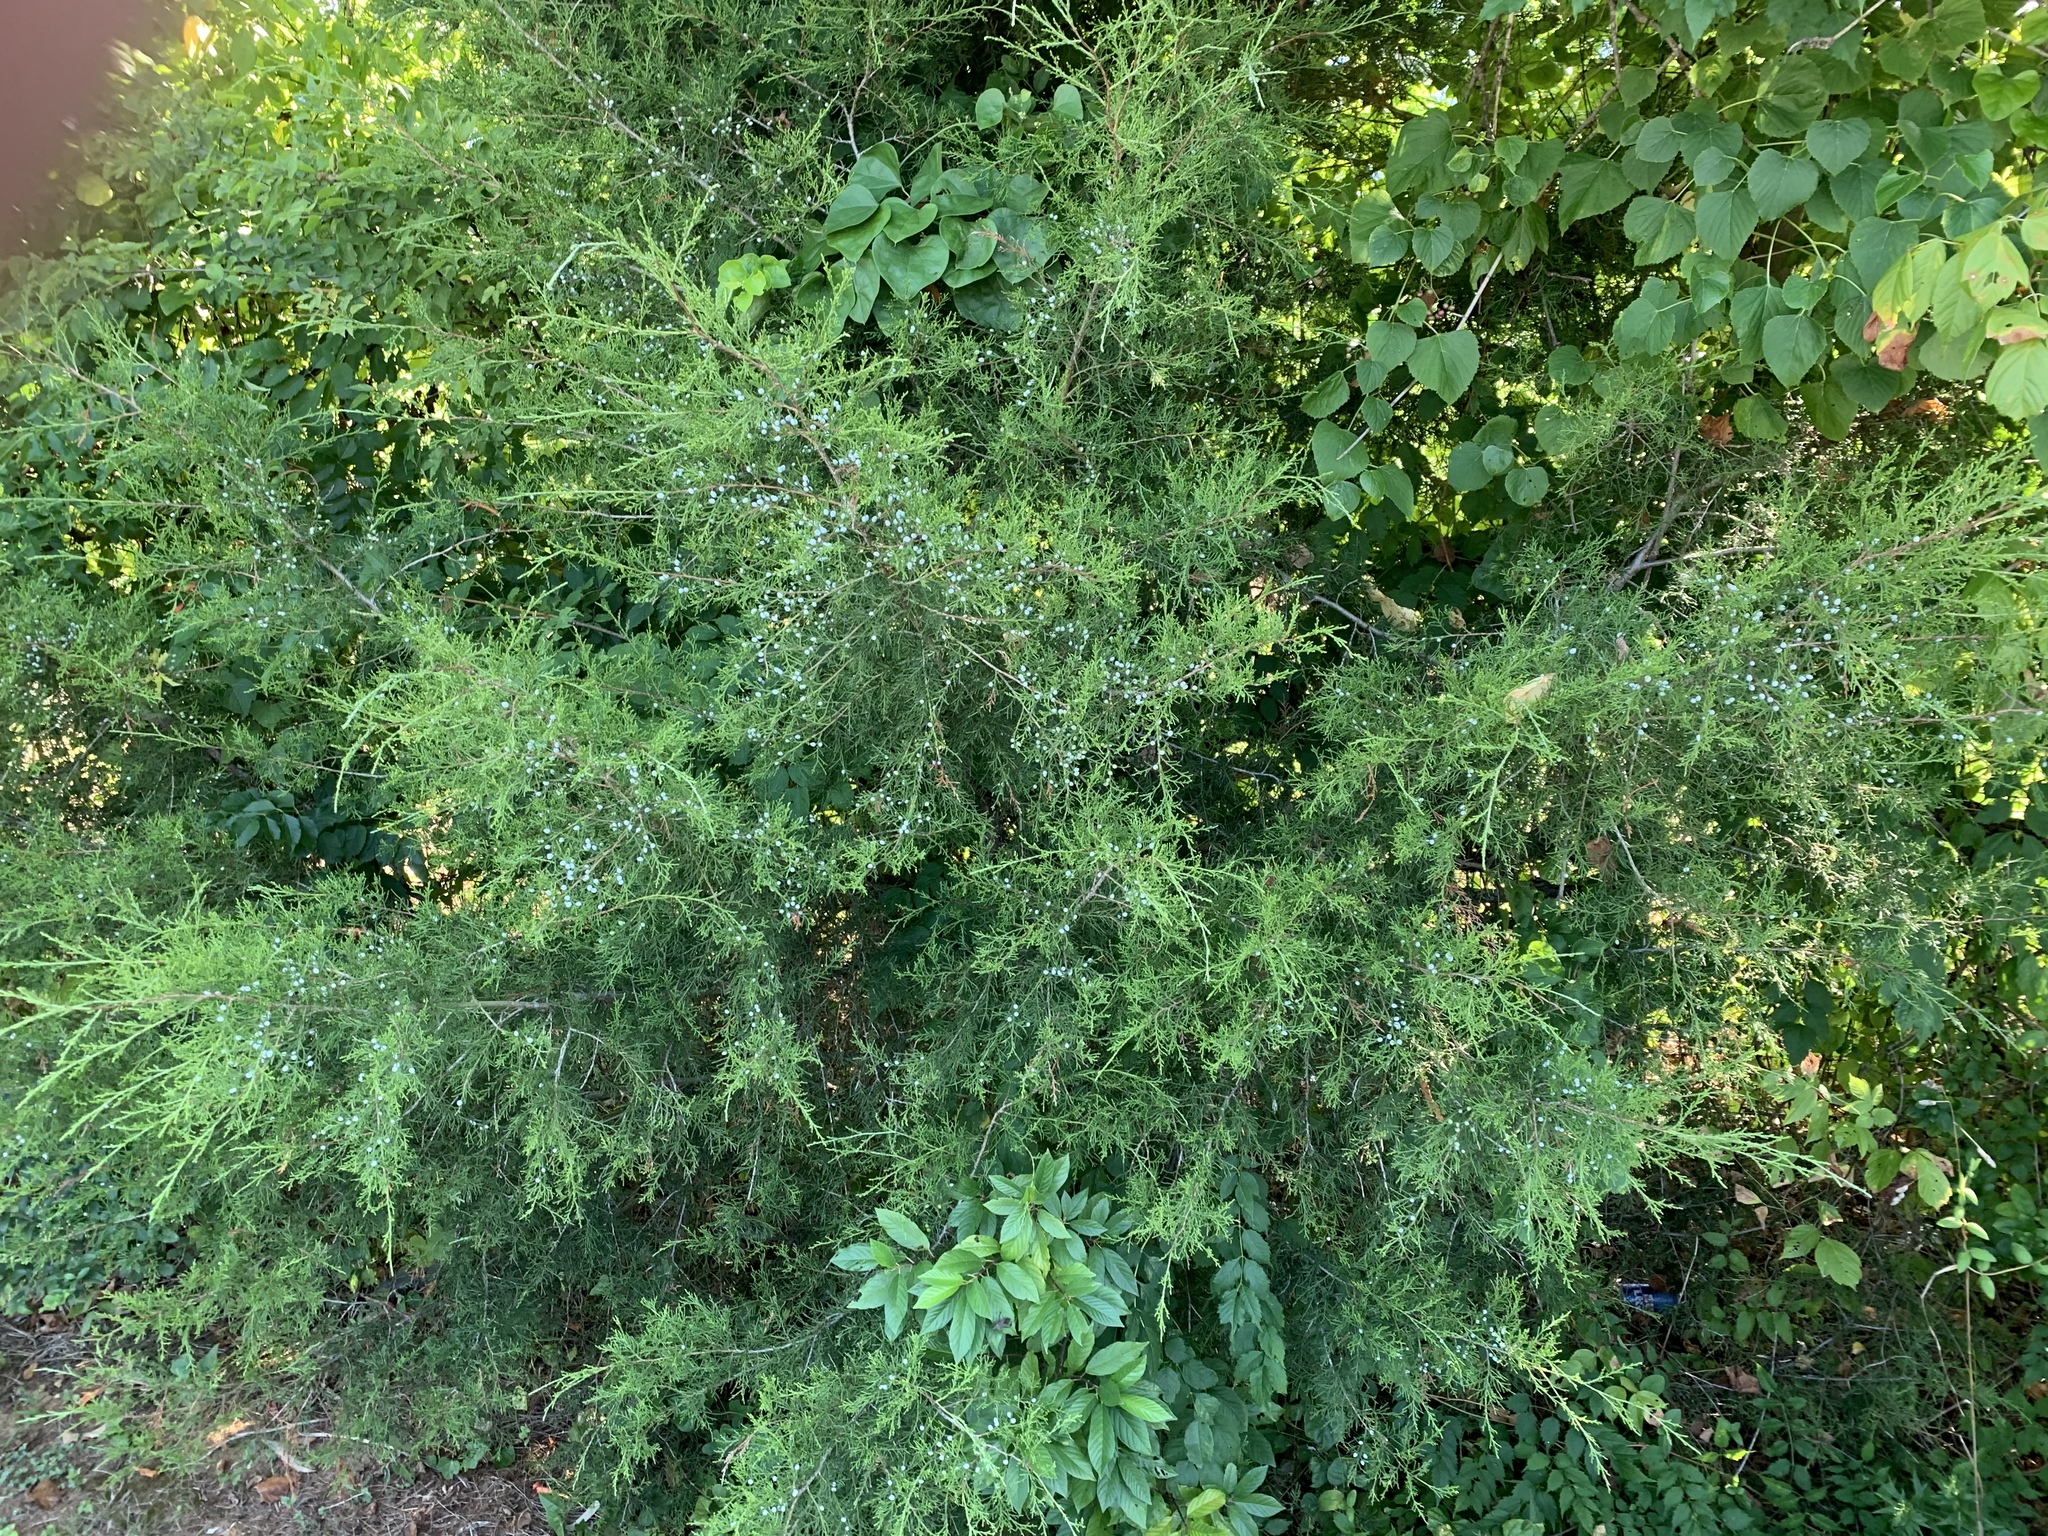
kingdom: Plantae
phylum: Tracheophyta
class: Pinopsida
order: Pinales
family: Cupressaceae
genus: Juniperus
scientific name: Juniperus virginiana
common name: Red juniper
